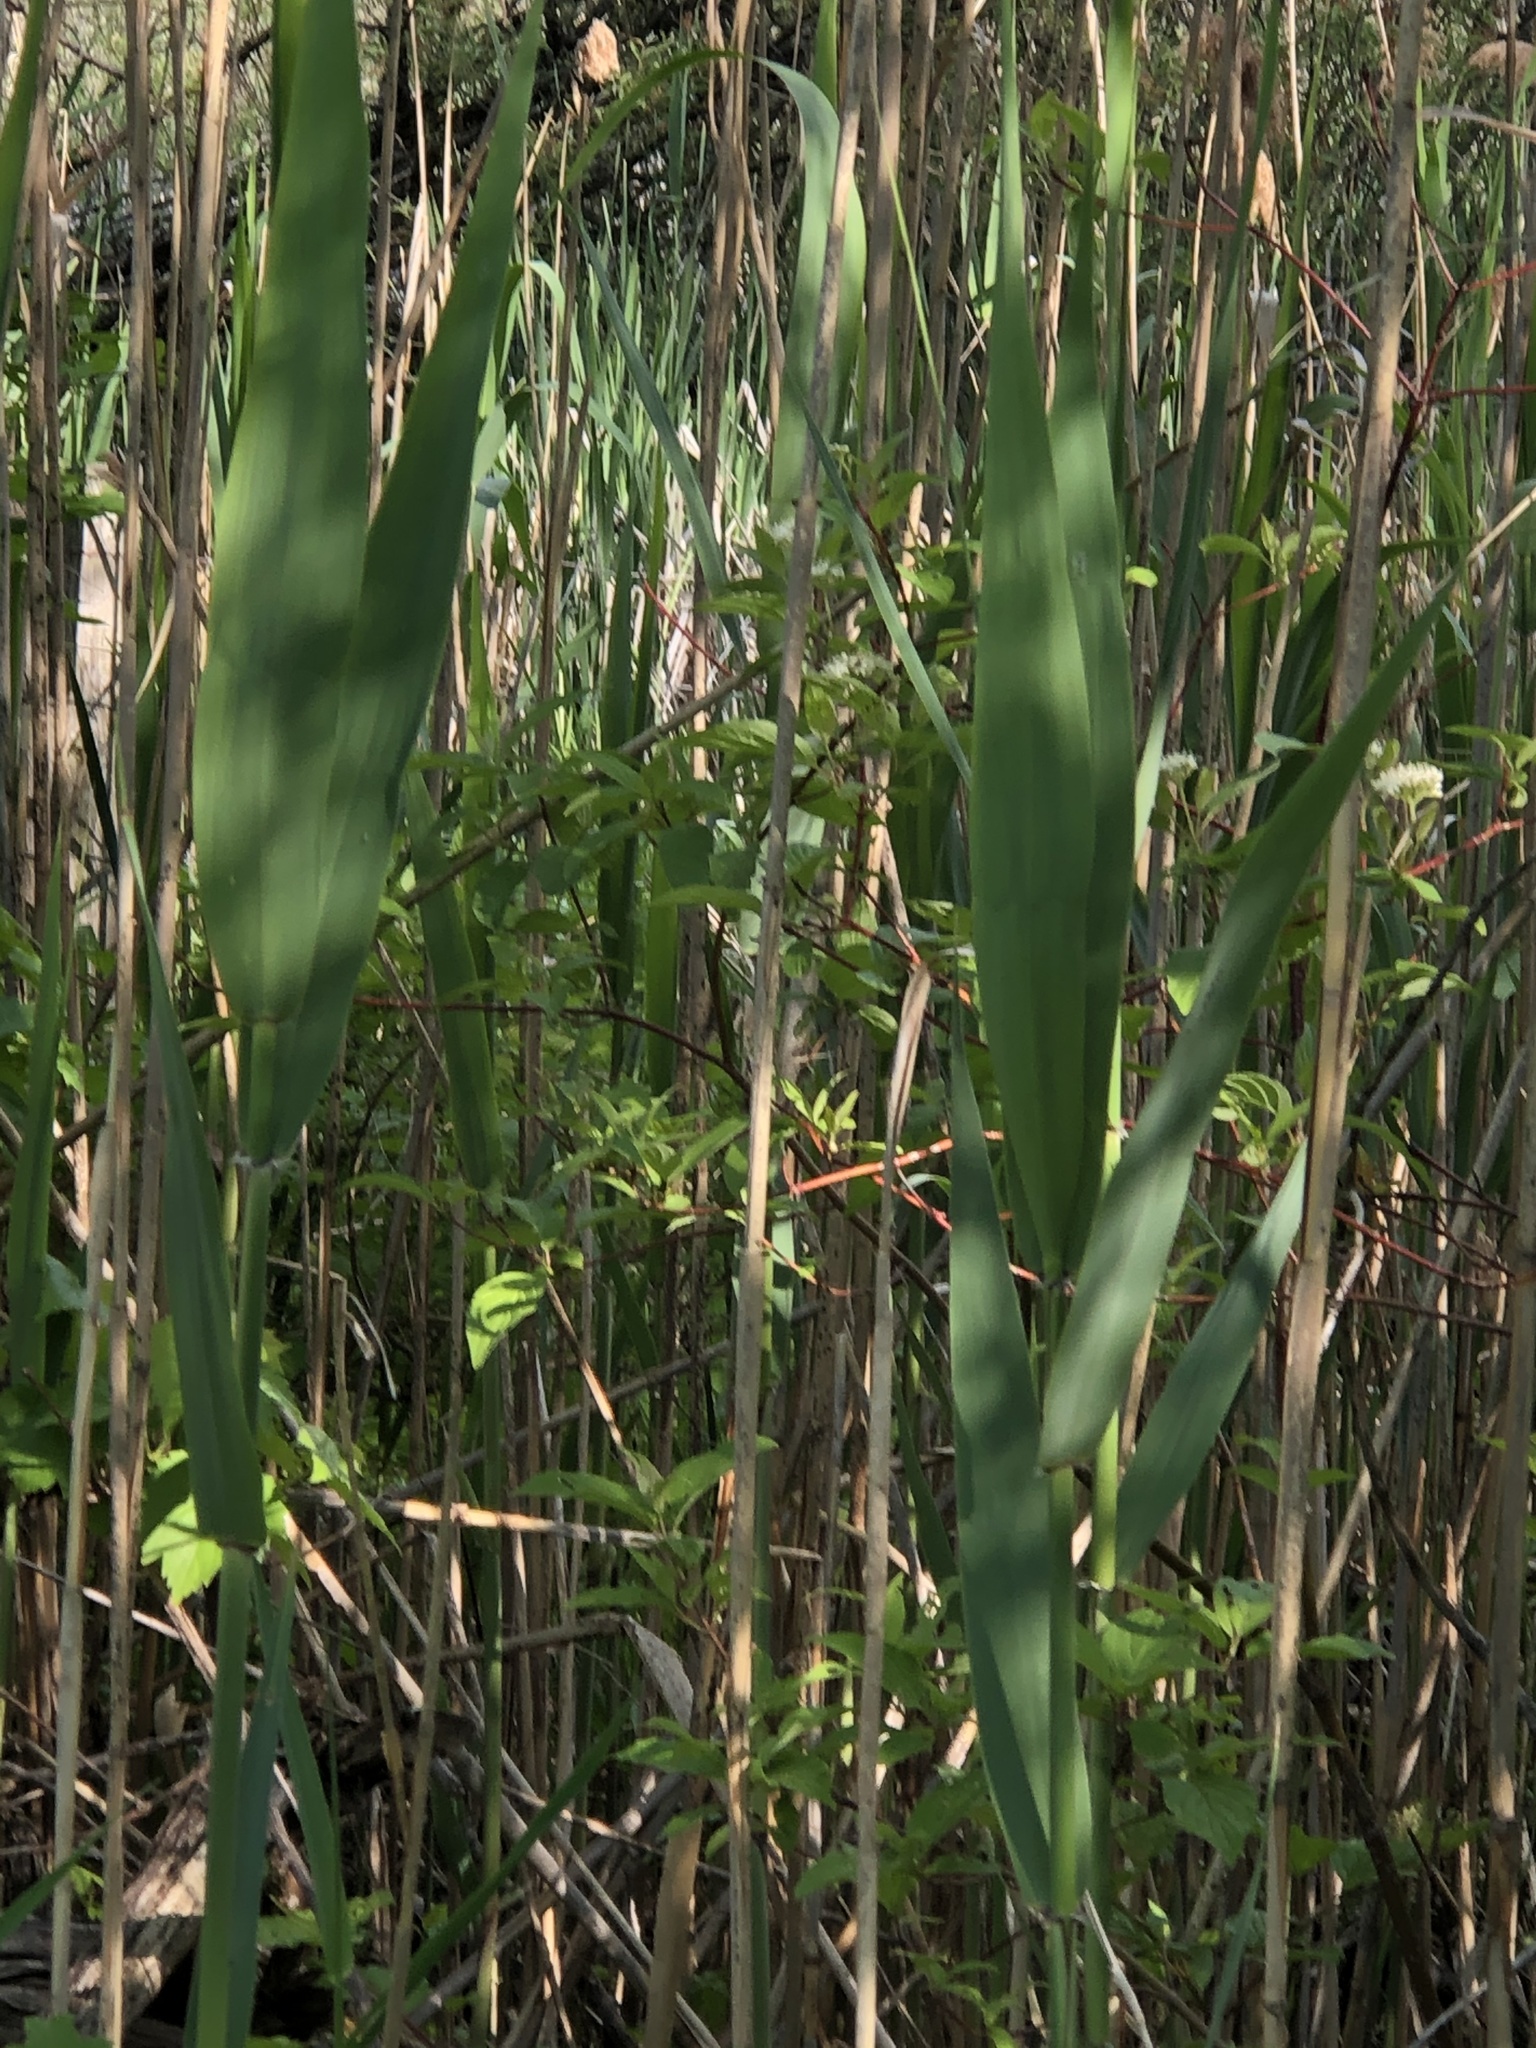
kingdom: Plantae
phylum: Tracheophyta
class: Liliopsida
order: Poales
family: Poaceae
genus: Phragmites
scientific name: Phragmites australis
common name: Common reed
